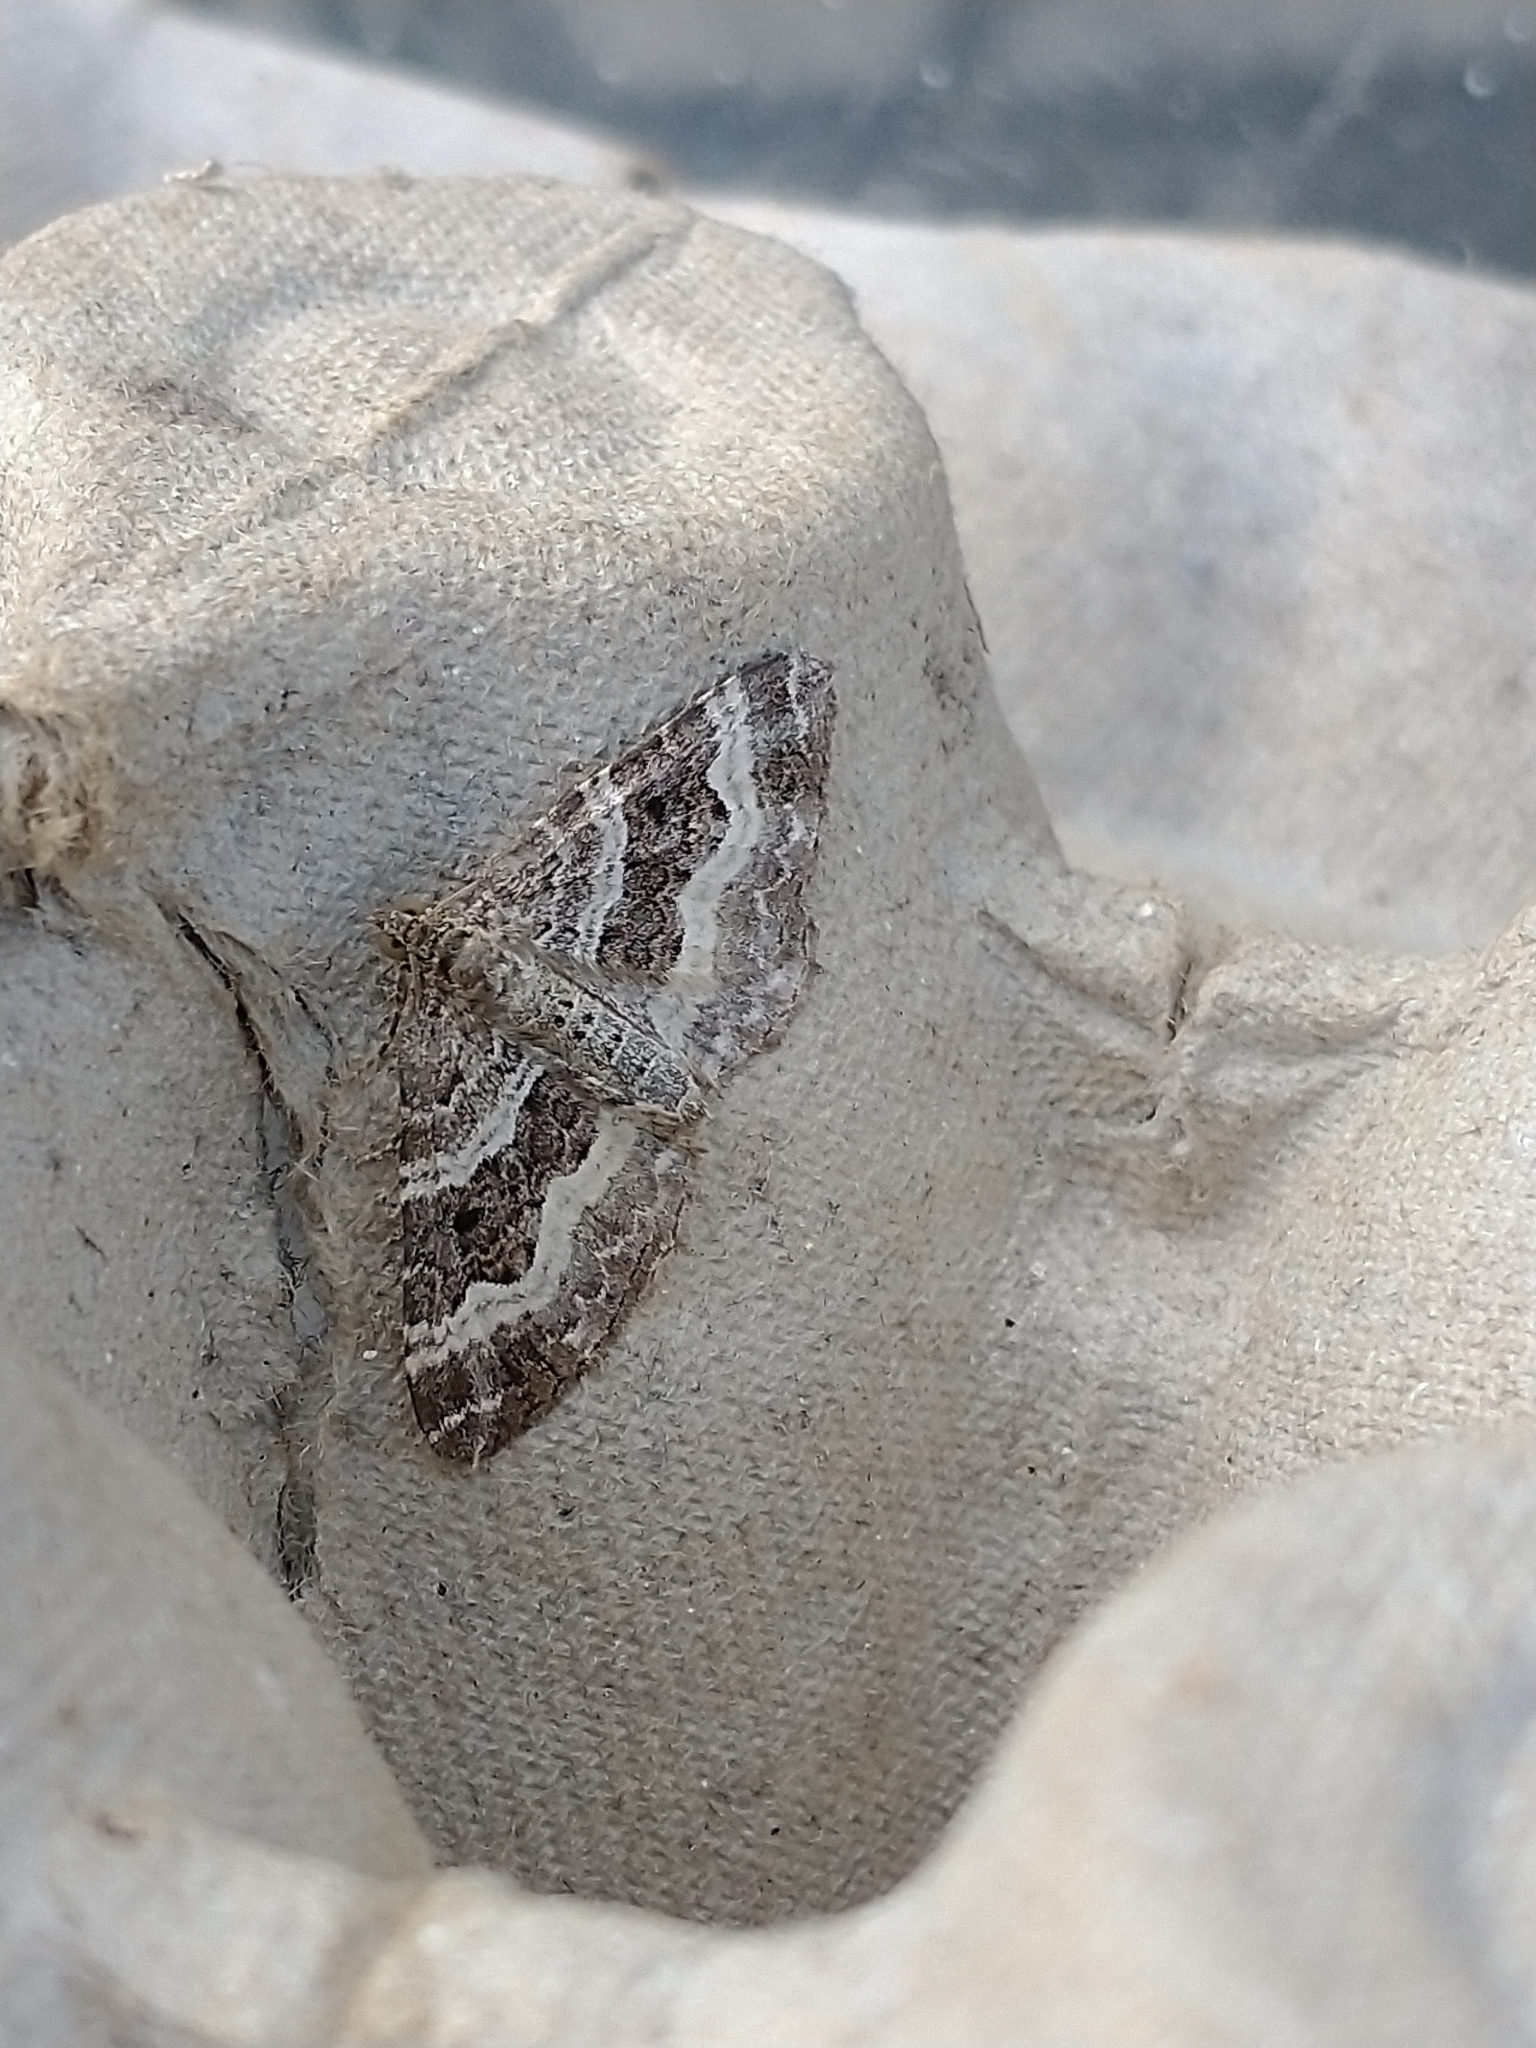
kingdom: Animalia
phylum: Arthropoda
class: Insecta
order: Lepidoptera
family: Geometridae
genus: Epirrhoe
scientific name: Epirrhoe alternata
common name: Common carpet
